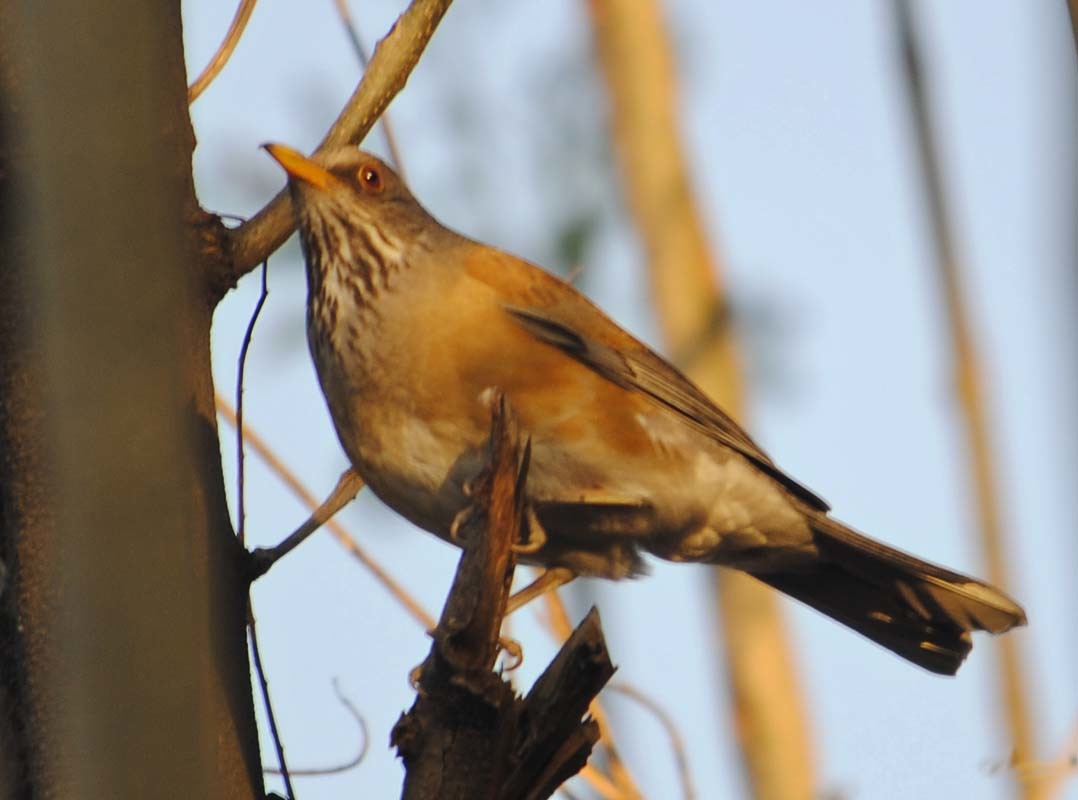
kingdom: Animalia
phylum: Chordata
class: Aves
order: Passeriformes
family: Turdidae
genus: Turdus
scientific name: Turdus rufopalliatus
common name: Rufous-backed robin
